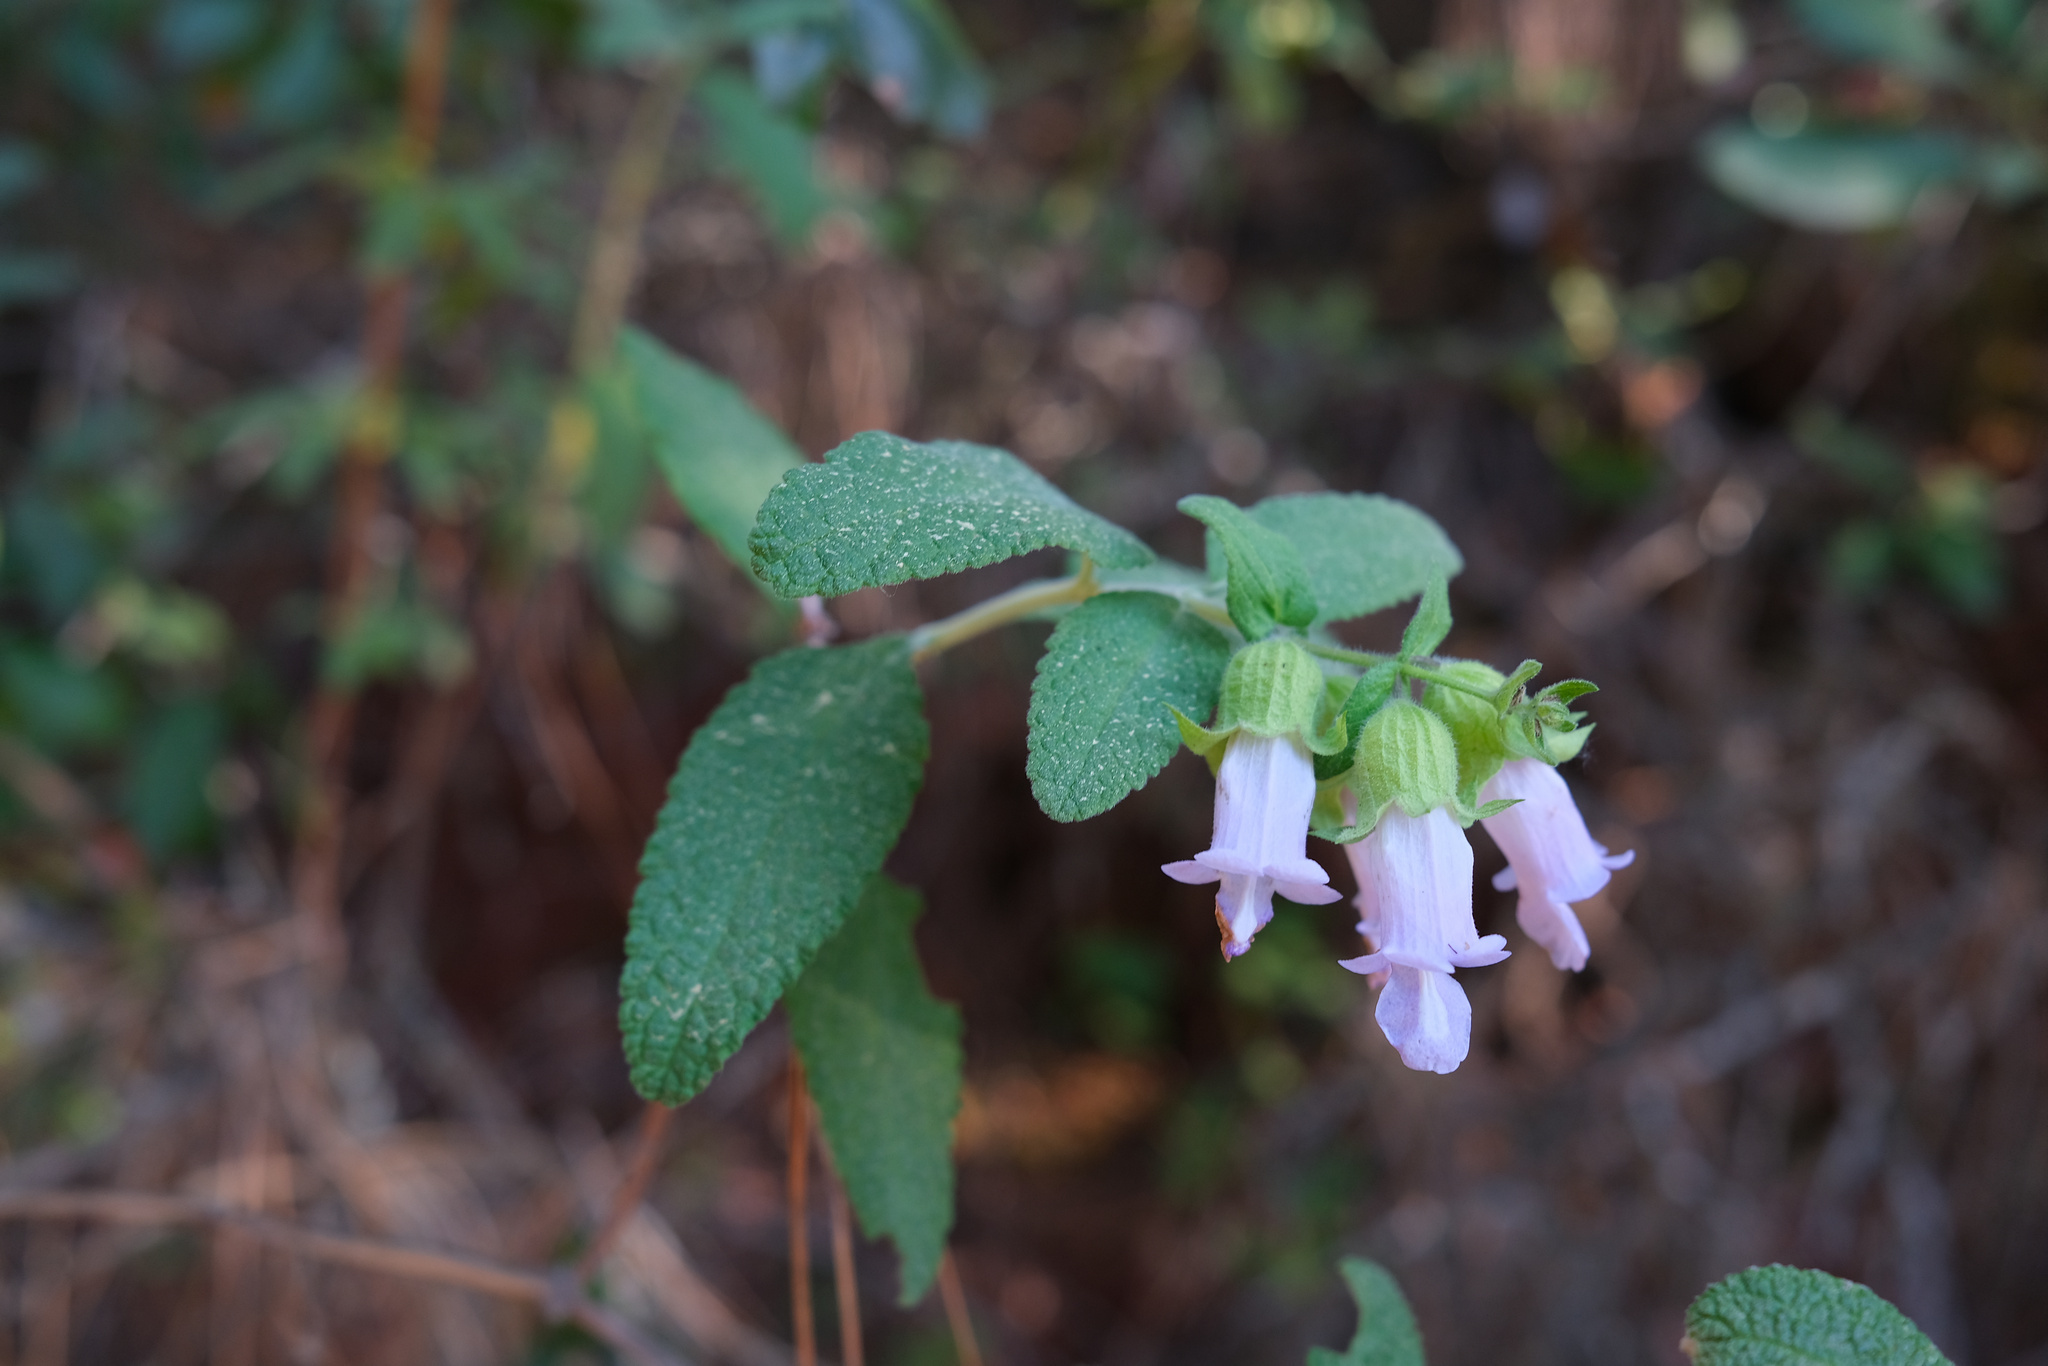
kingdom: Plantae
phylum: Tracheophyta
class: Magnoliopsida
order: Lamiales
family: Lamiaceae
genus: Lepechinia
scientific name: Lepechinia calycina
